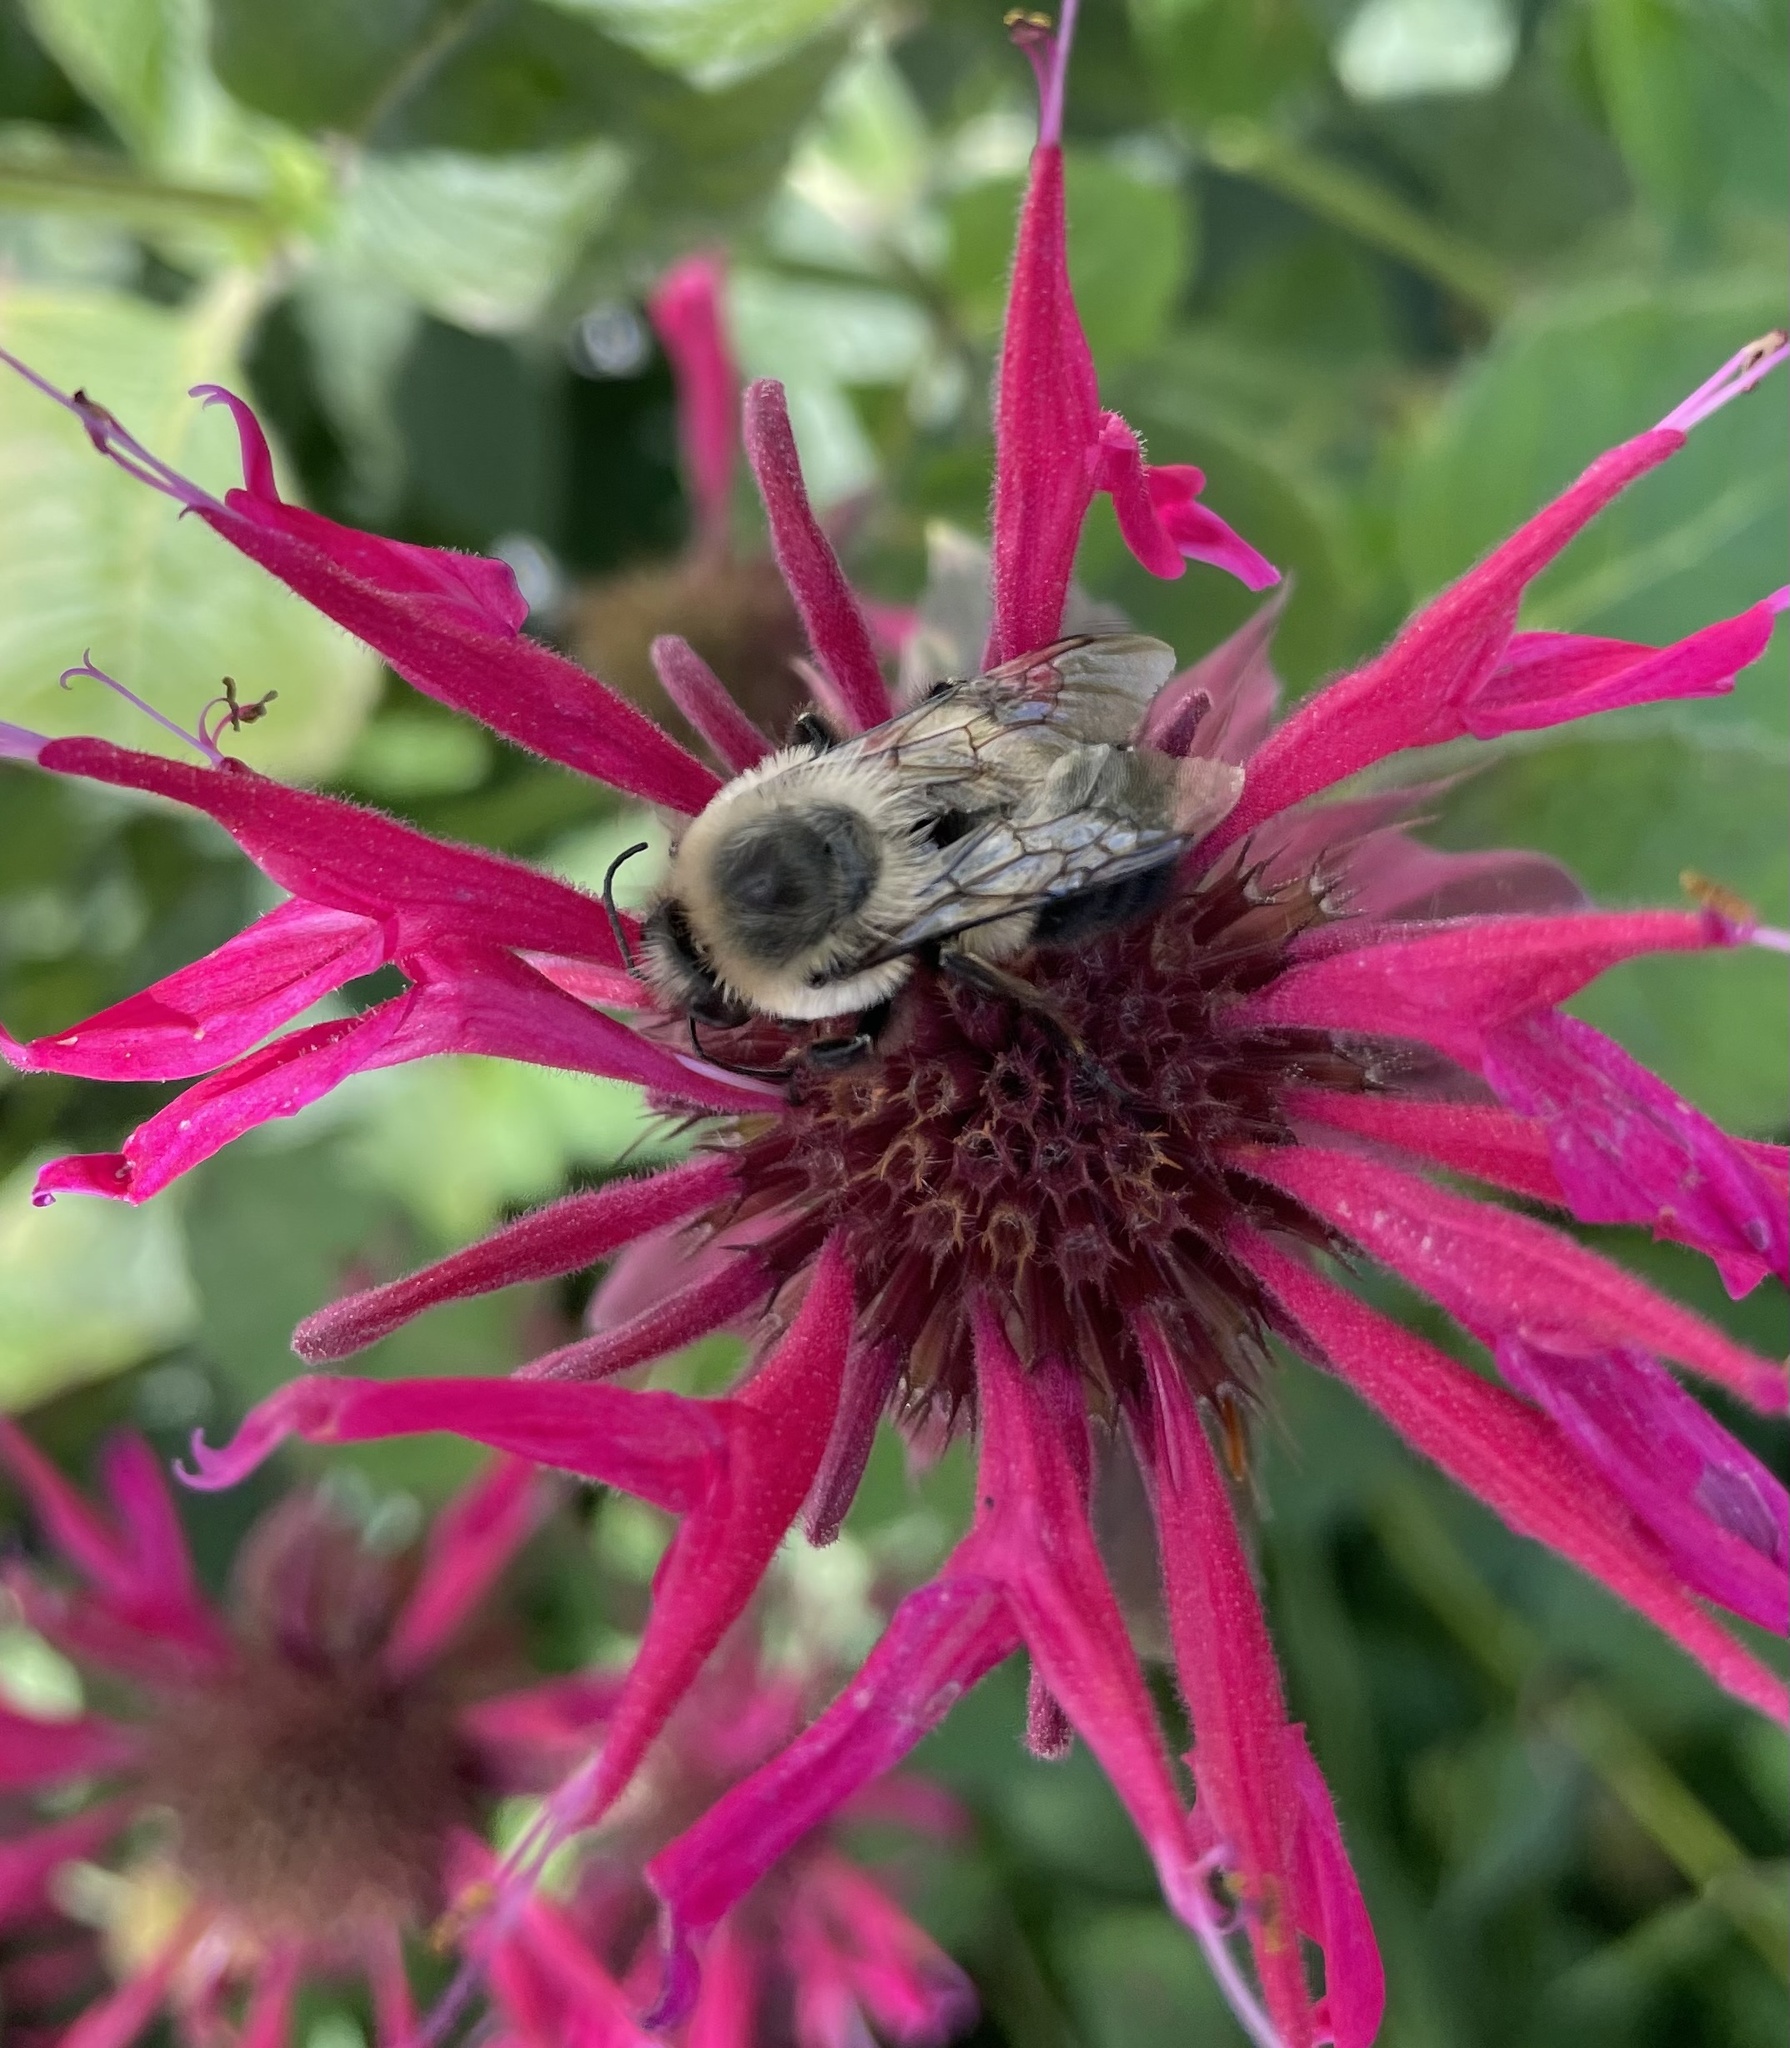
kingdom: Animalia
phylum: Arthropoda
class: Insecta
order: Hymenoptera
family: Apidae
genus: Bombus
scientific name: Bombus griseocollis
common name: Brown-belted bumble bee
